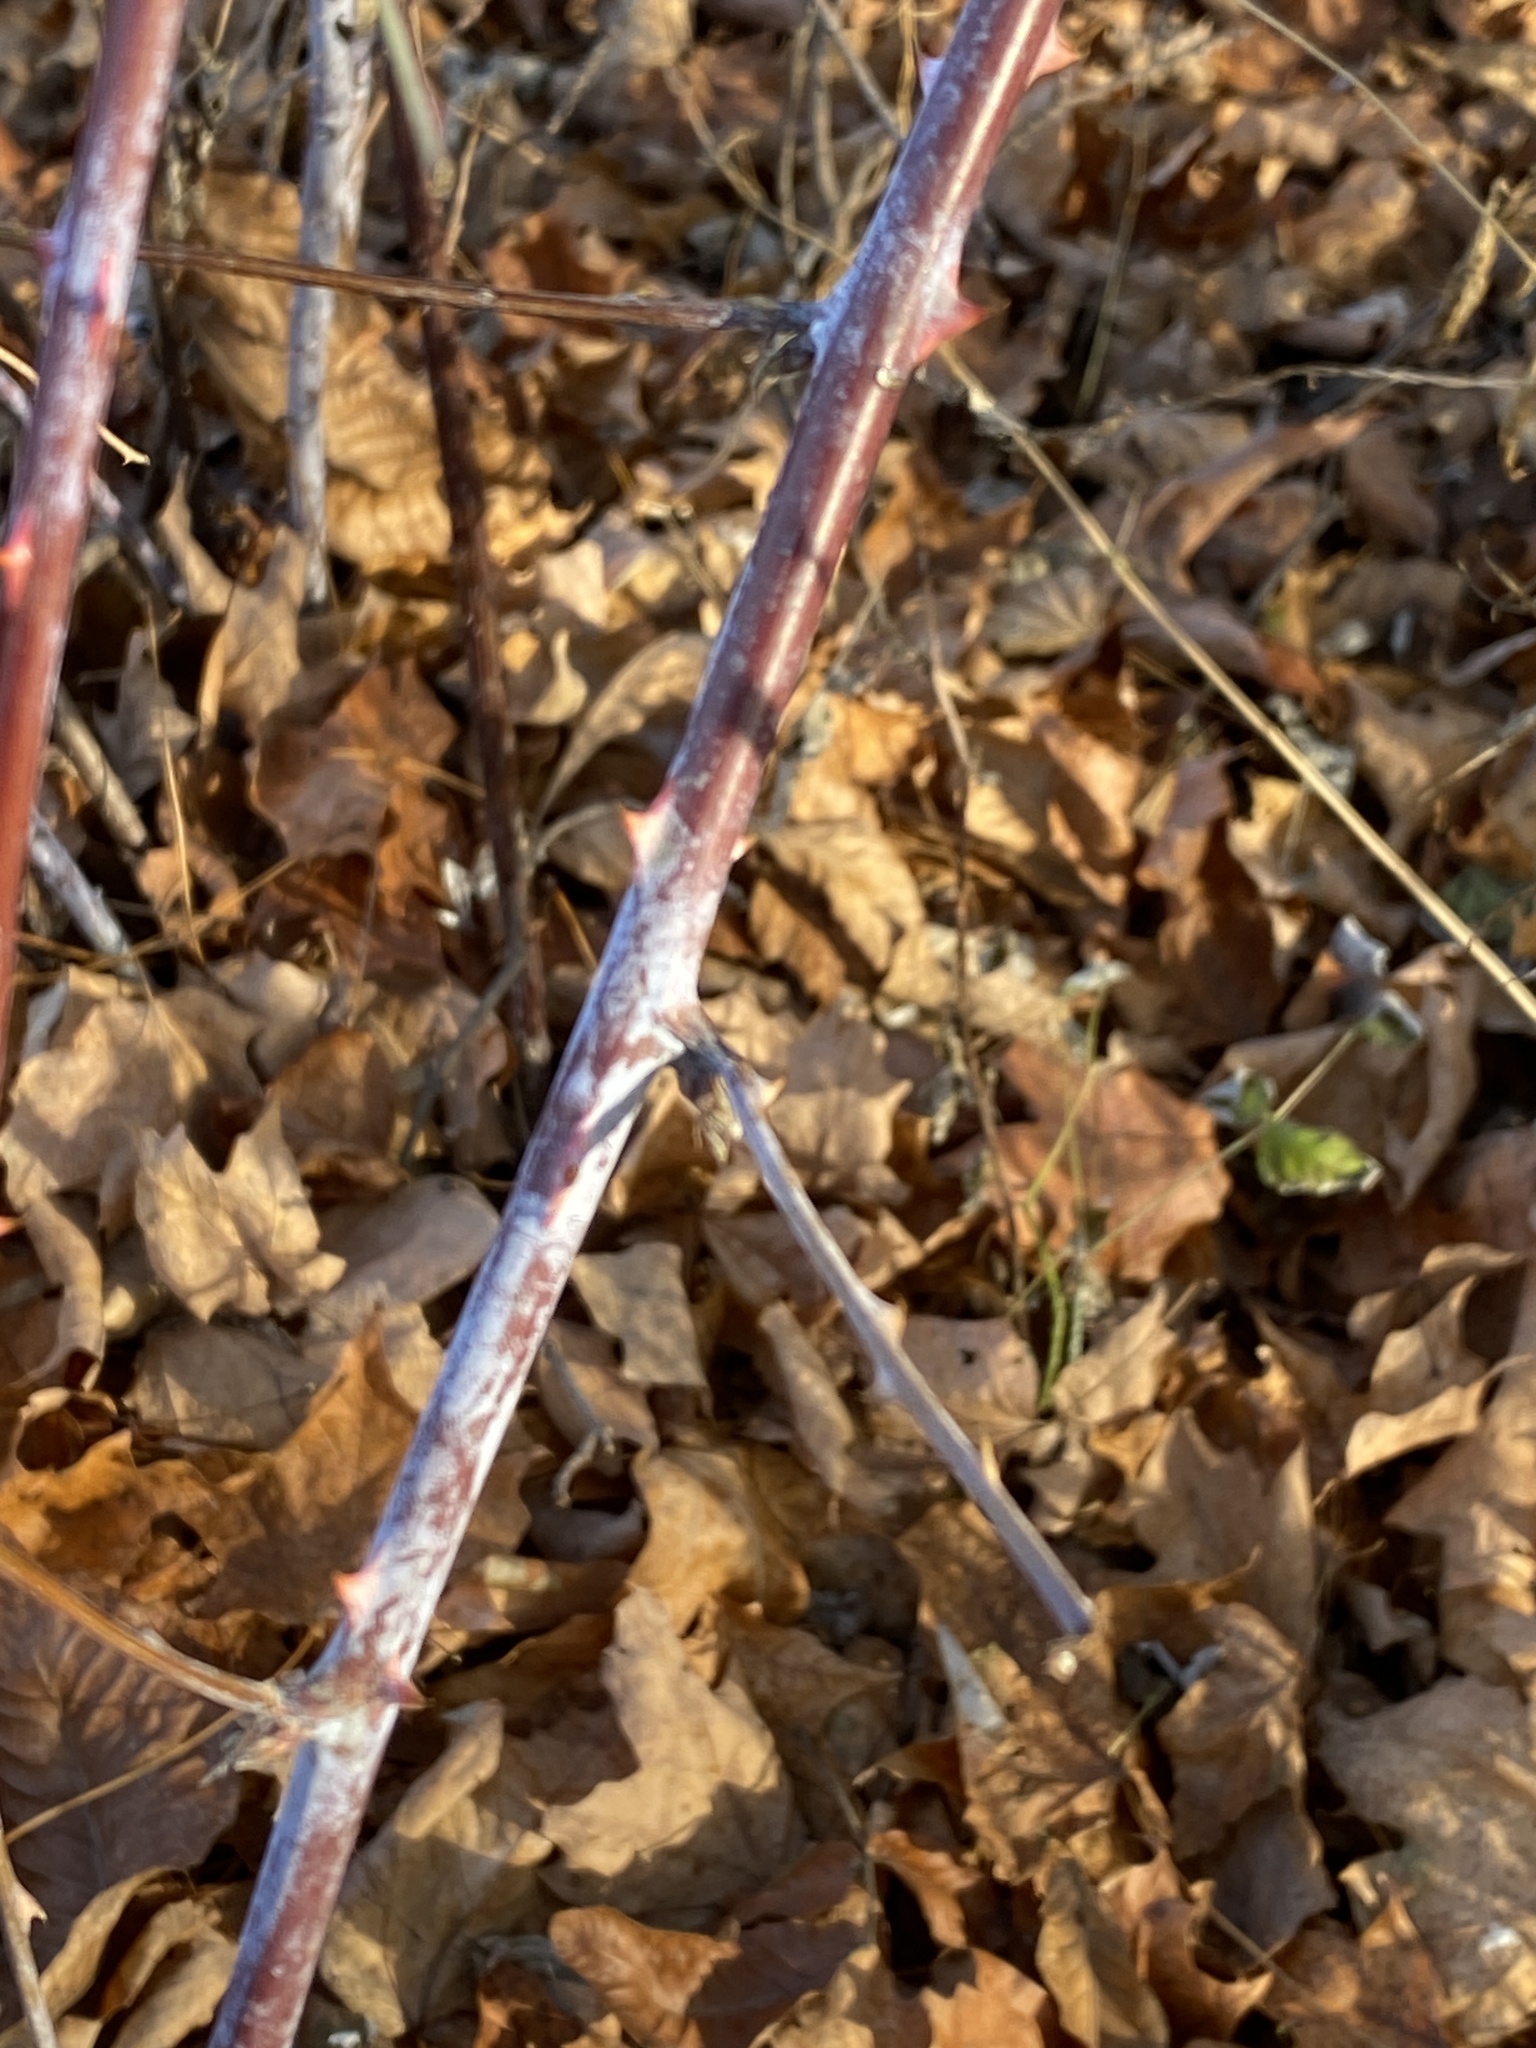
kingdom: Plantae
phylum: Tracheophyta
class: Magnoliopsida
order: Rosales
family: Rosaceae
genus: Rubus
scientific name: Rubus occidentalis
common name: Black raspberry
